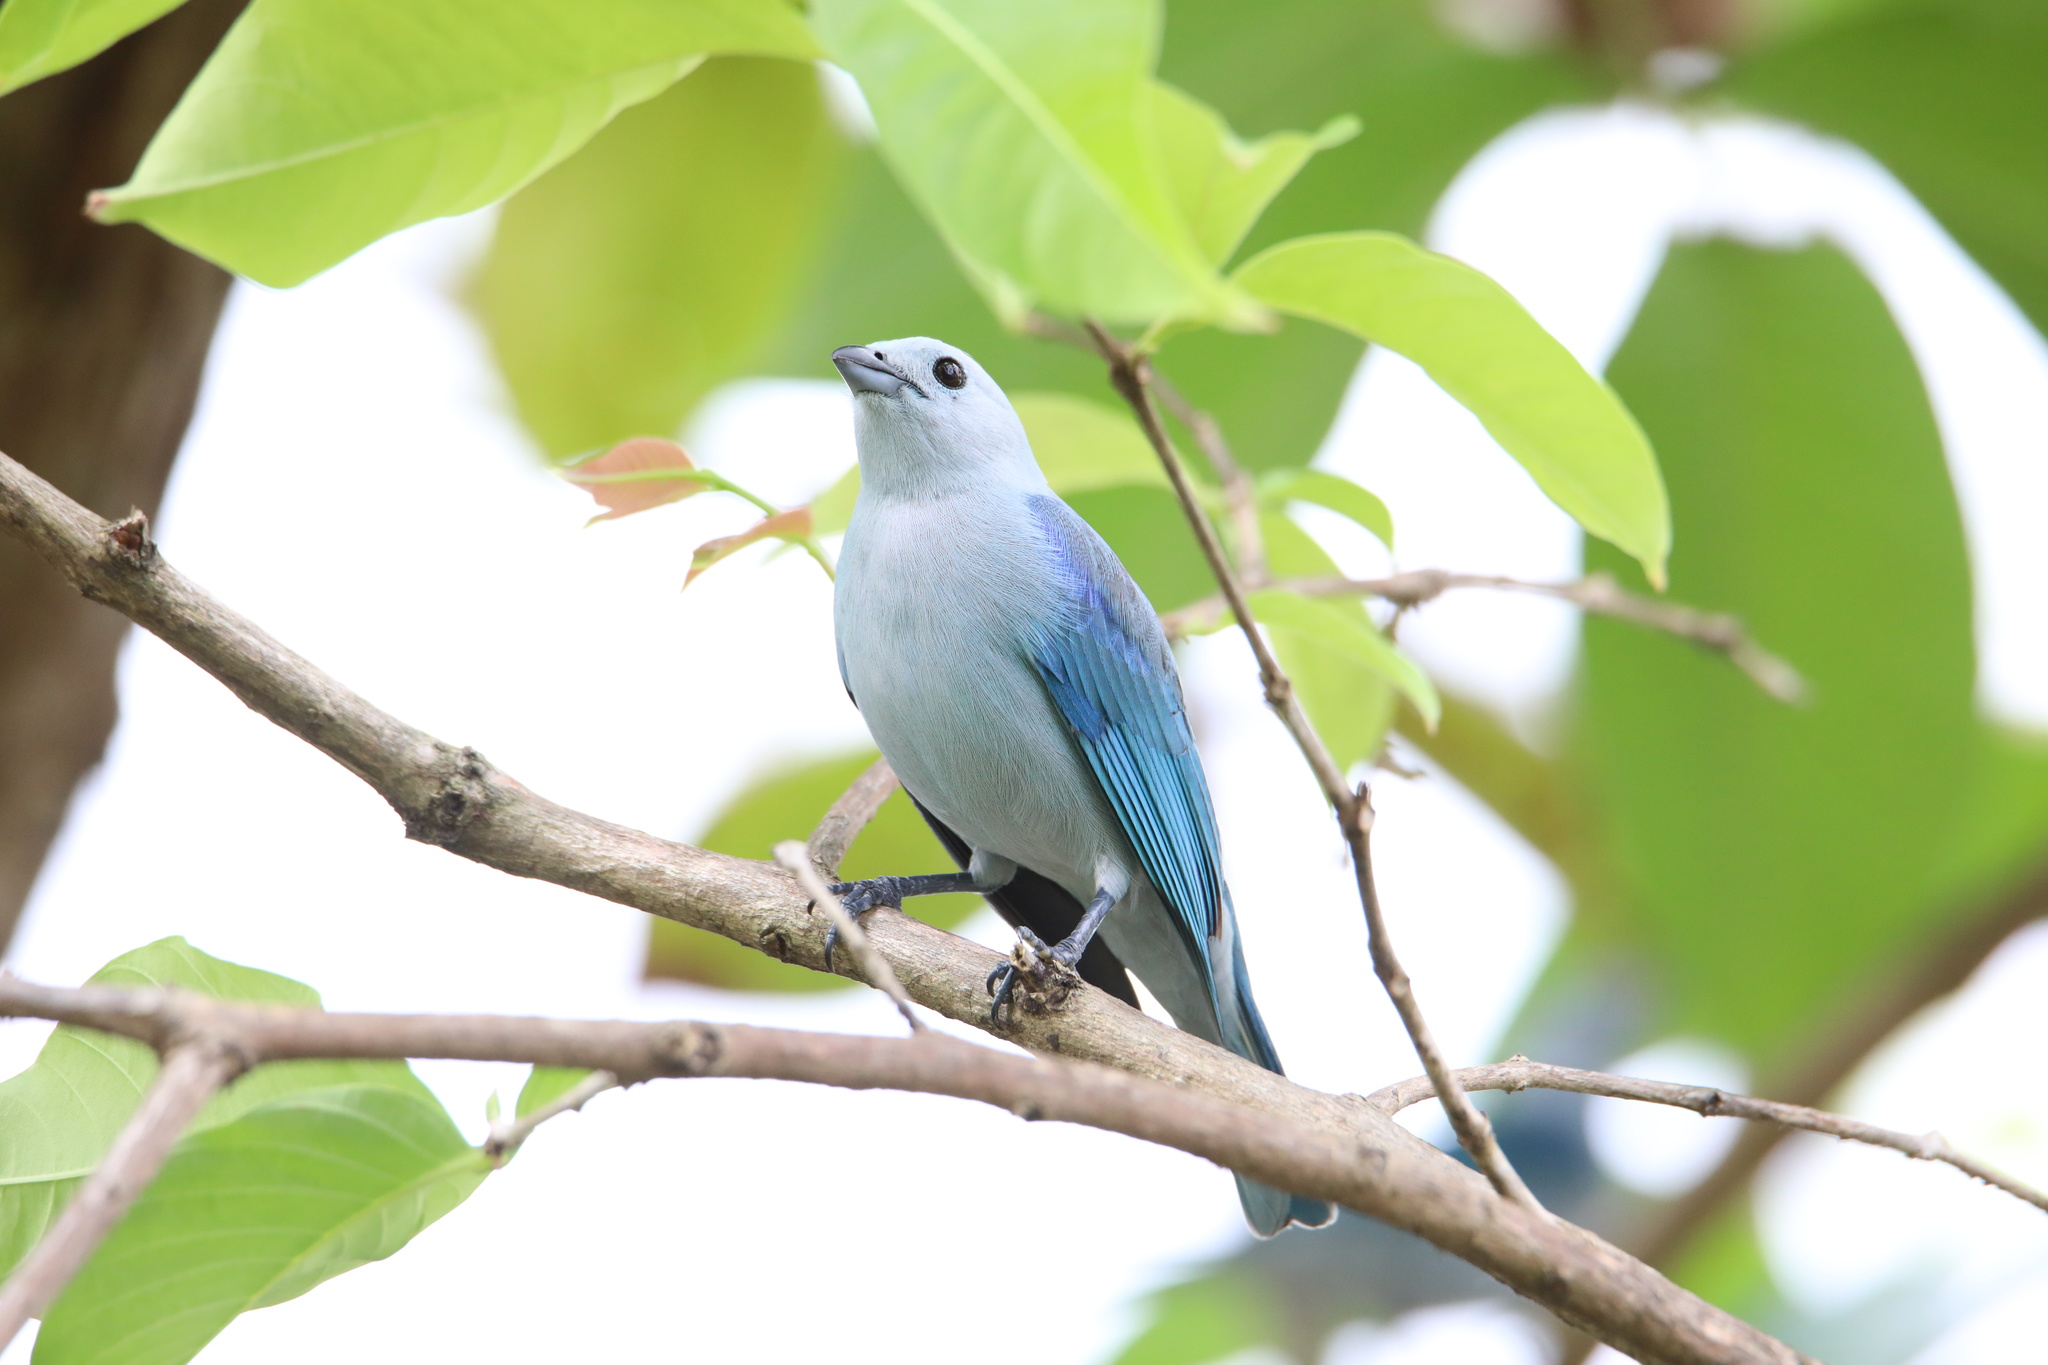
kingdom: Animalia
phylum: Chordata
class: Aves
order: Passeriformes
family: Thraupidae
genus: Thraupis
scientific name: Thraupis episcopus
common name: Blue-grey tanager
